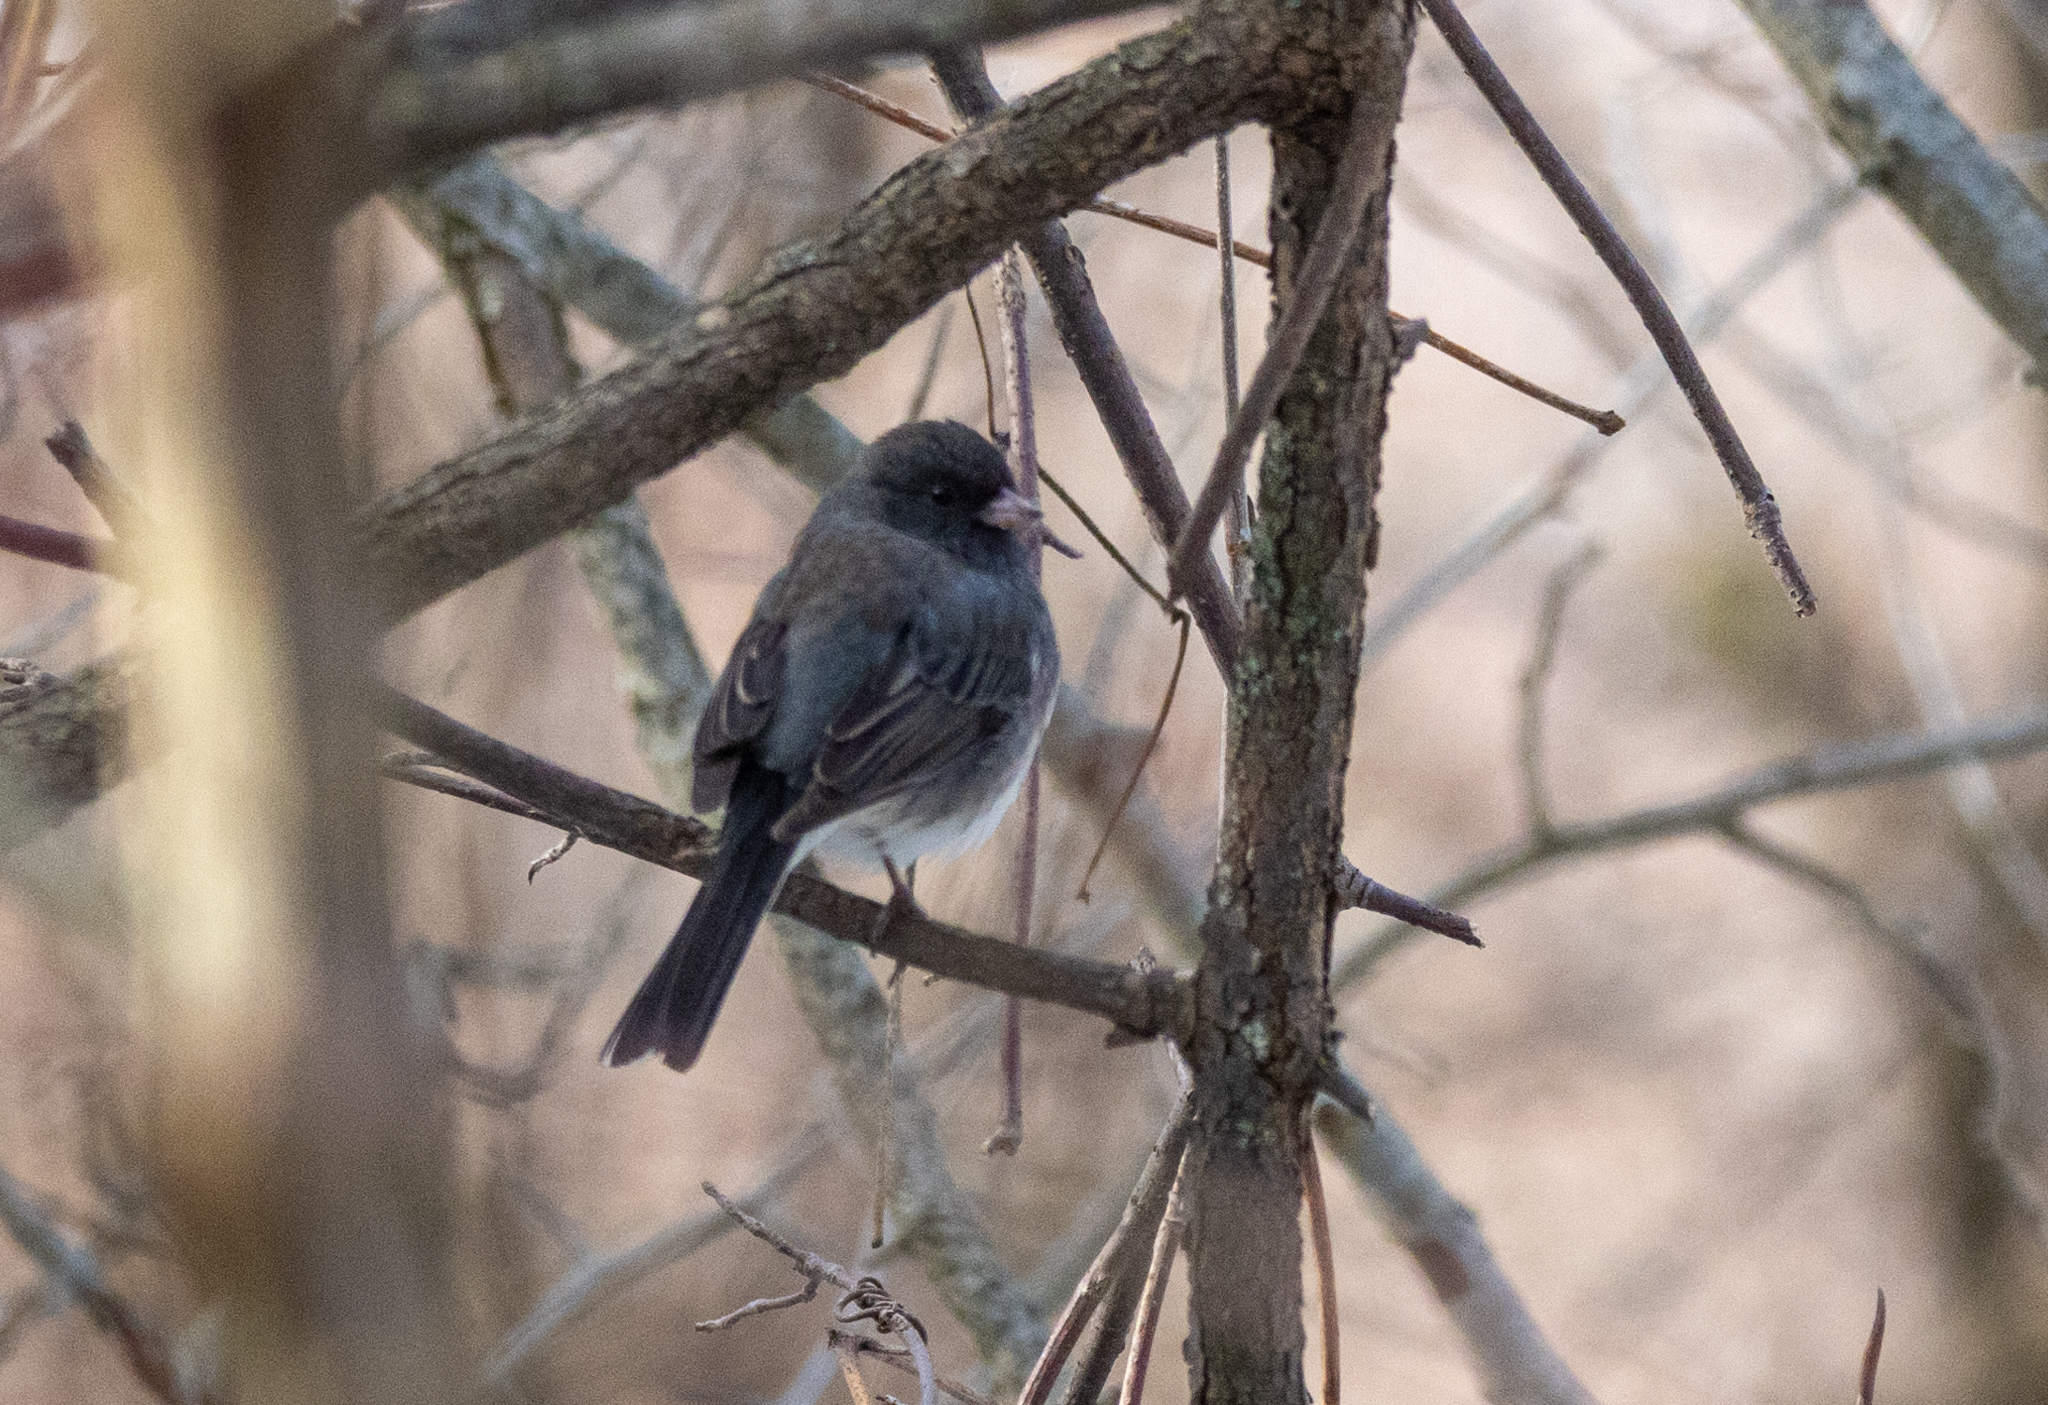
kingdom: Animalia
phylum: Chordata
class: Aves
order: Passeriformes
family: Passerellidae
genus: Junco
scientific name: Junco hyemalis
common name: Dark-eyed junco
